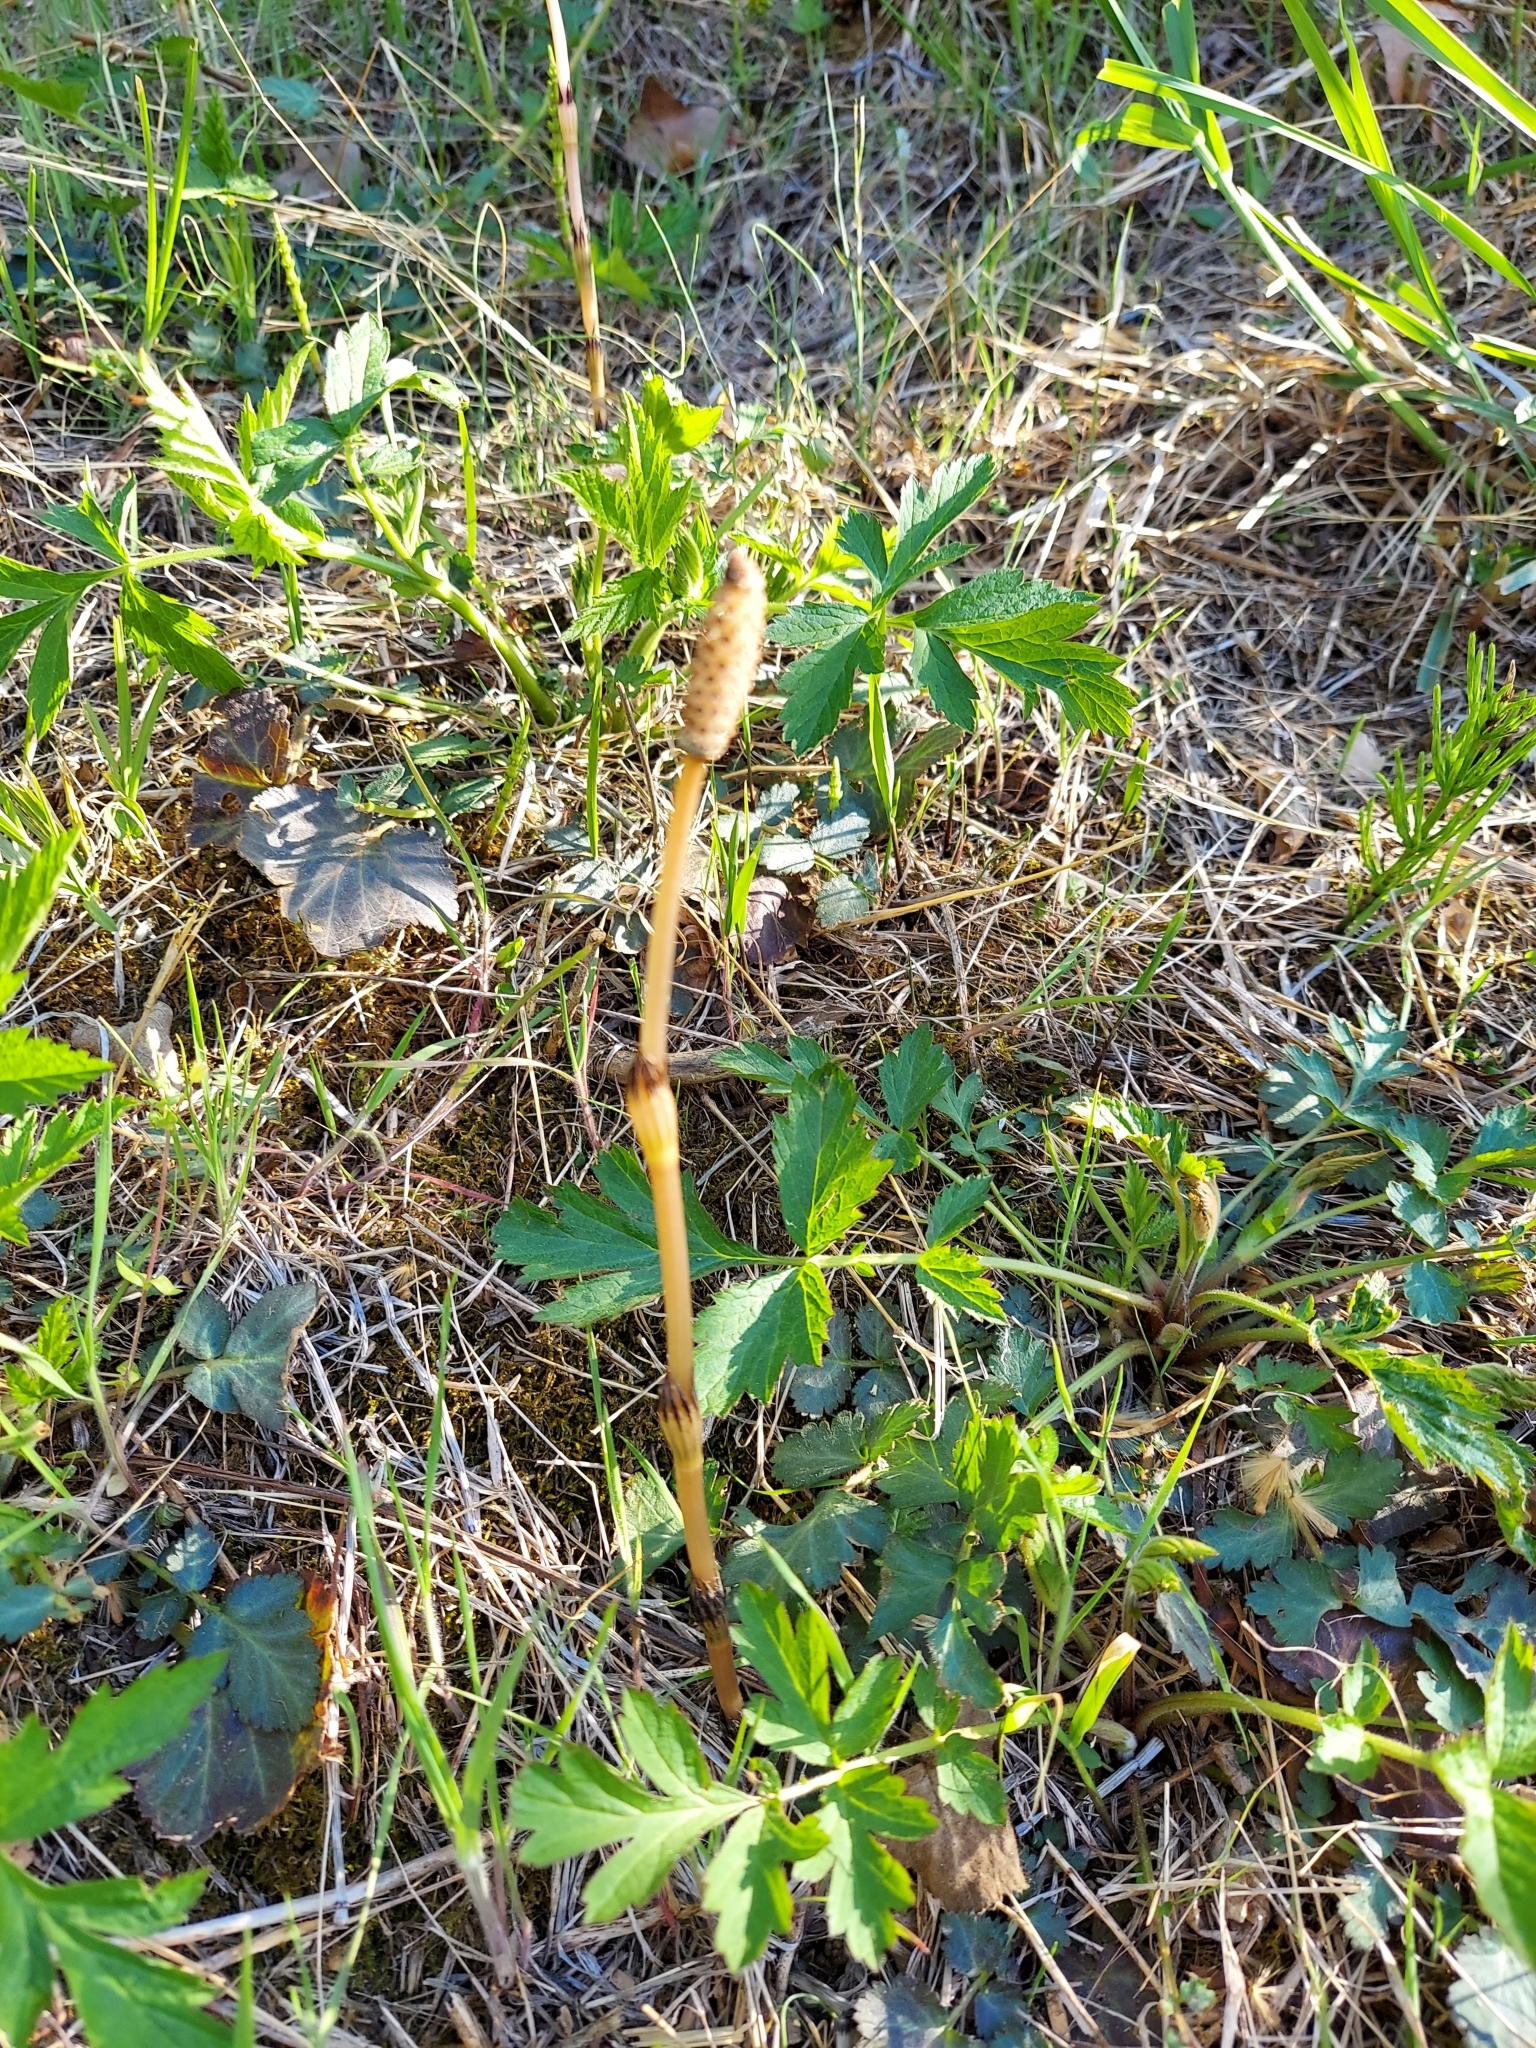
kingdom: Plantae
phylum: Tracheophyta
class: Polypodiopsida
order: Equisetales
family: Equisetaceae
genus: Equisetum
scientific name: Equisetum arvense
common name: Field horsetail
